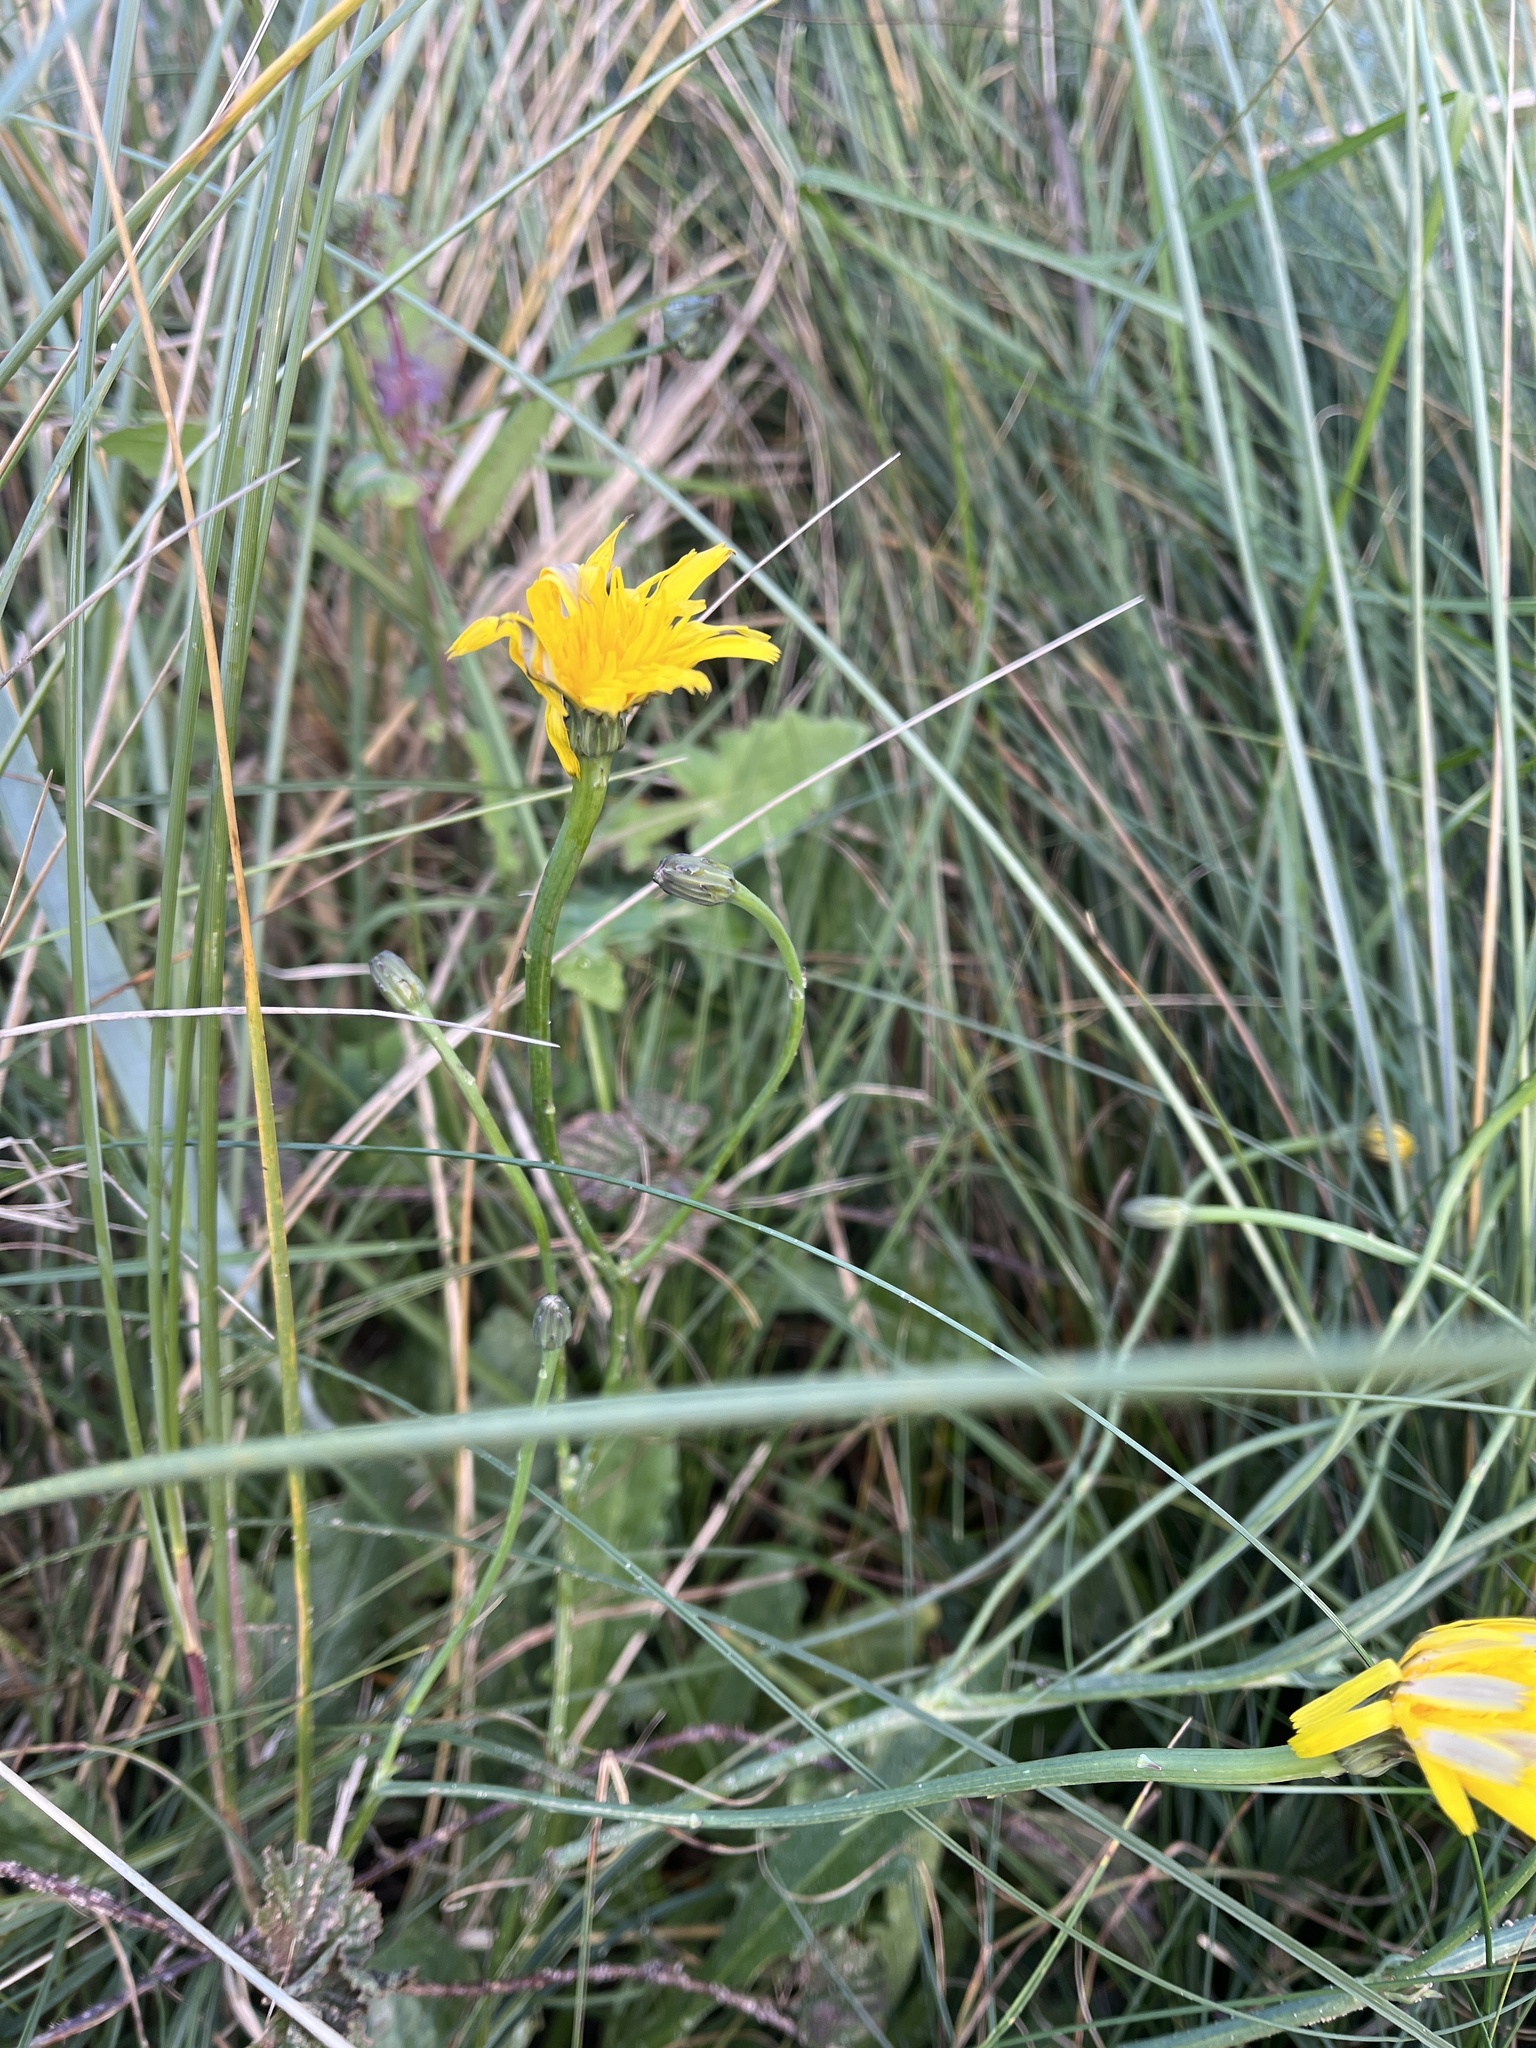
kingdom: Plantae
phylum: Tracheophyta
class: Magnoliopsida
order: Asterales
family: Asteraceae
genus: Hypochaeris
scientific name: Hypochaeris radicata
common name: Flatweed
